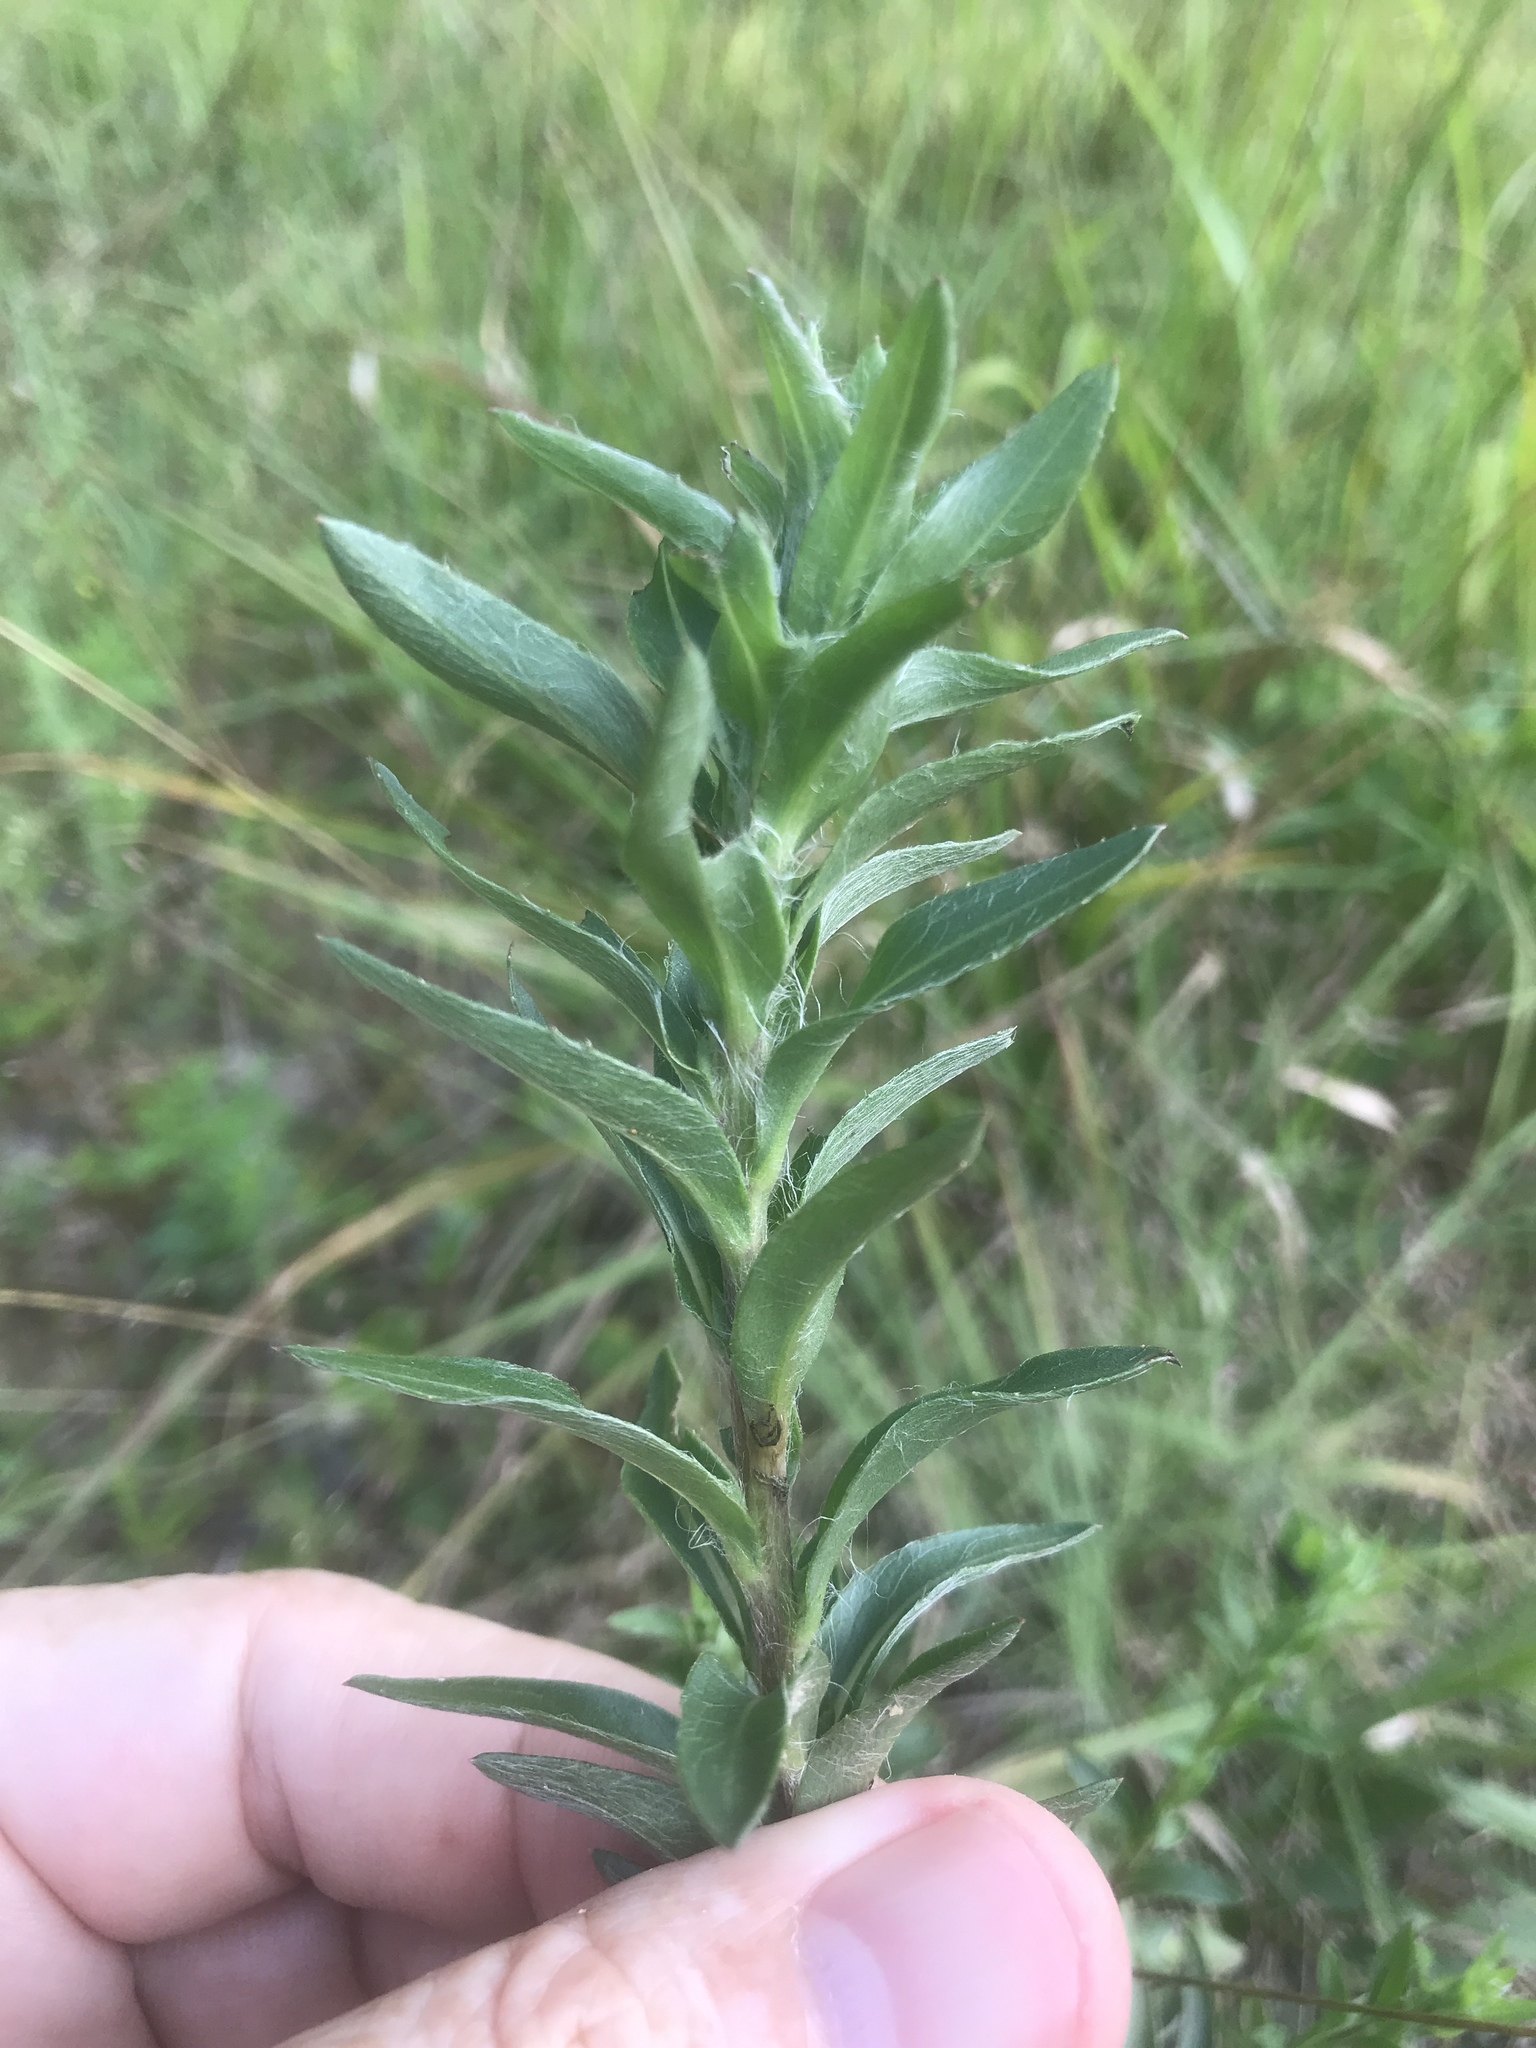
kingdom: Plantae
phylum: Tracheophyta
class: Magnoliopsida
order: Asterales
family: Asteraceae
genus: Chrysopsis
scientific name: Chrysopsis mariana
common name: Maryland golden-aster
